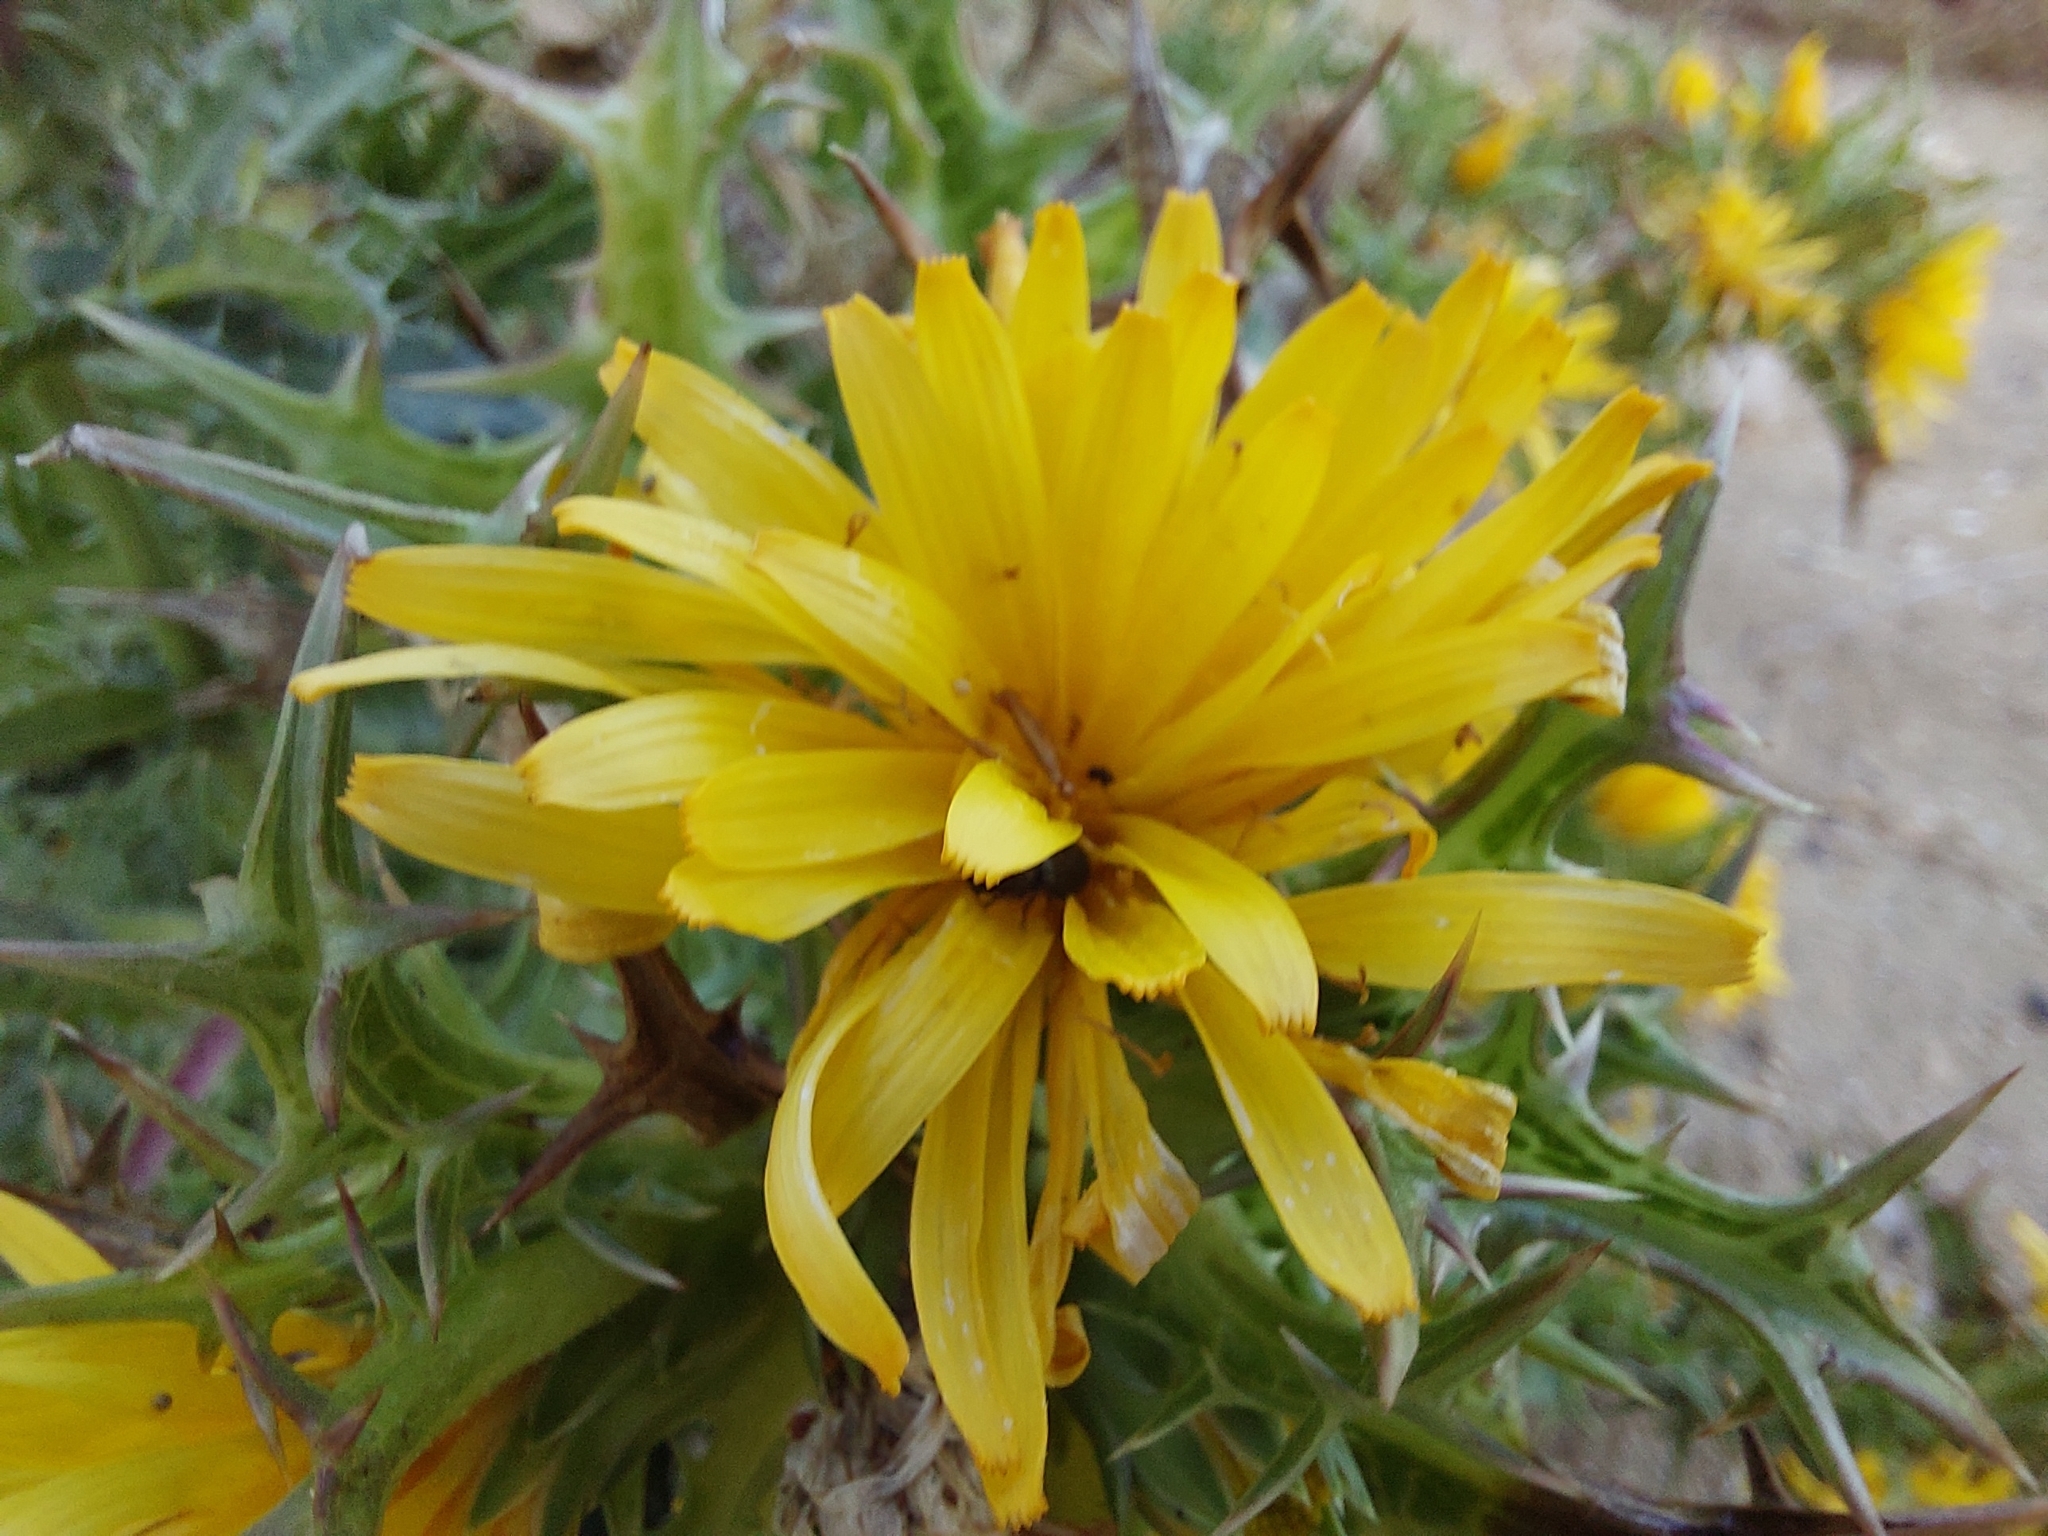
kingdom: Plantae
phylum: Tracheophyta
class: Magnoliopsida
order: Asterales
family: Asteraceae
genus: Scolymus
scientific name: Scolymus hispanicus
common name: Golden thistle
